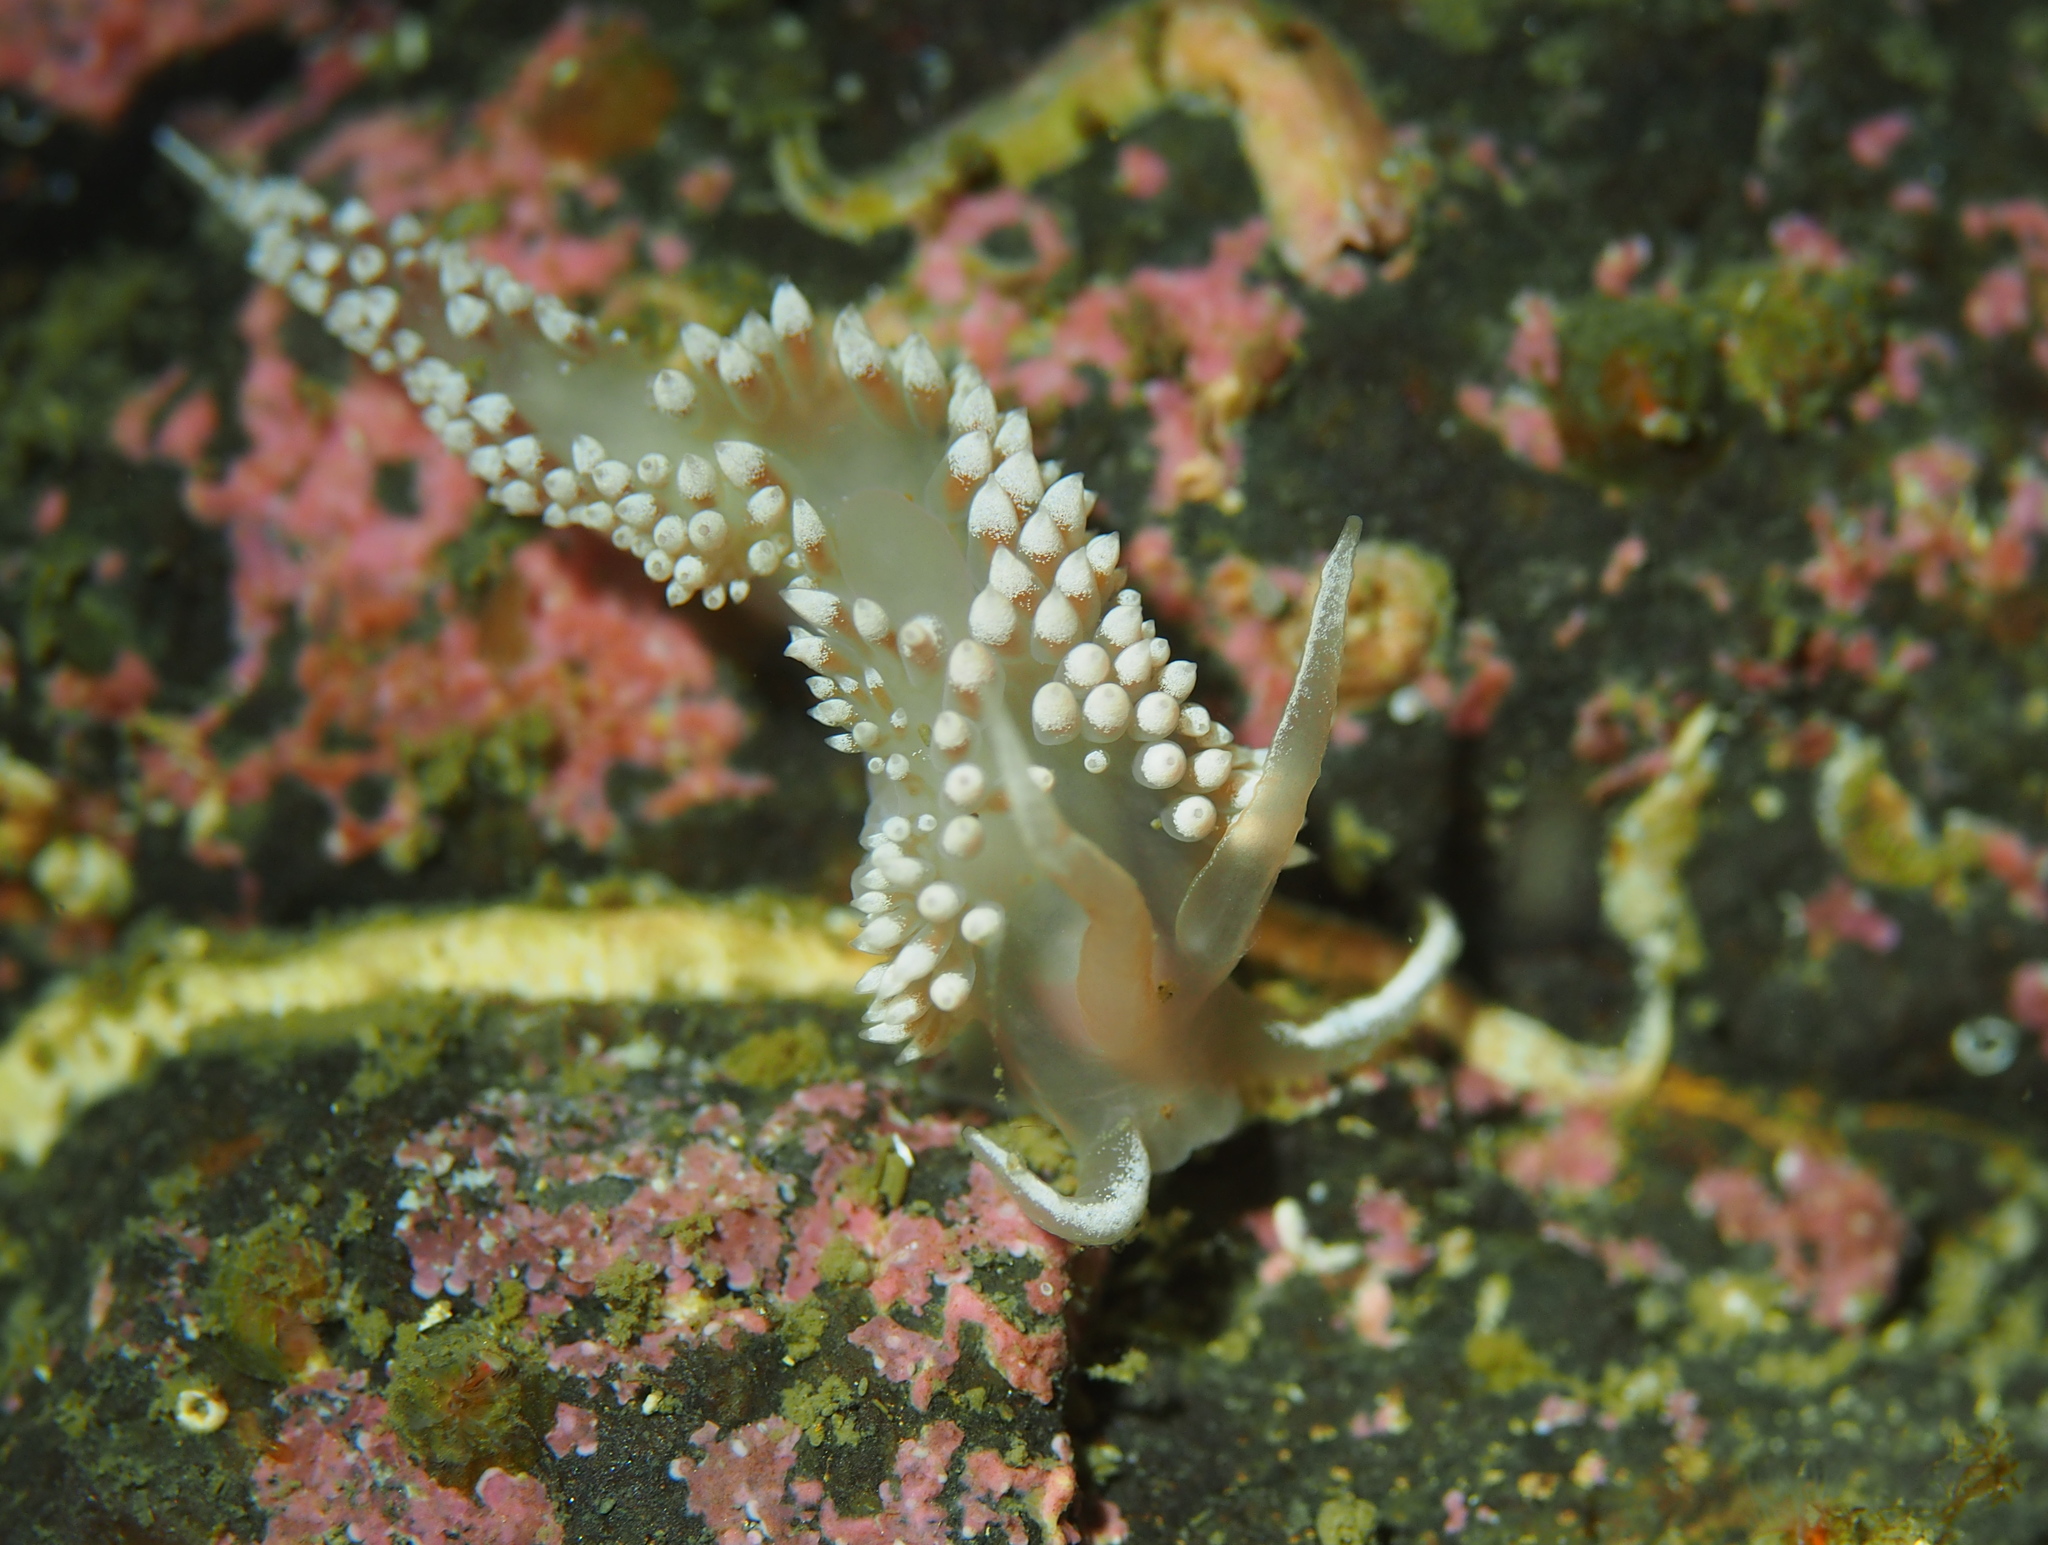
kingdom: Animalia
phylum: Mollusca
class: Gastropoda
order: Nudibranchia
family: Coryphellidae
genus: Coryphella
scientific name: Coryphella verrucosa
